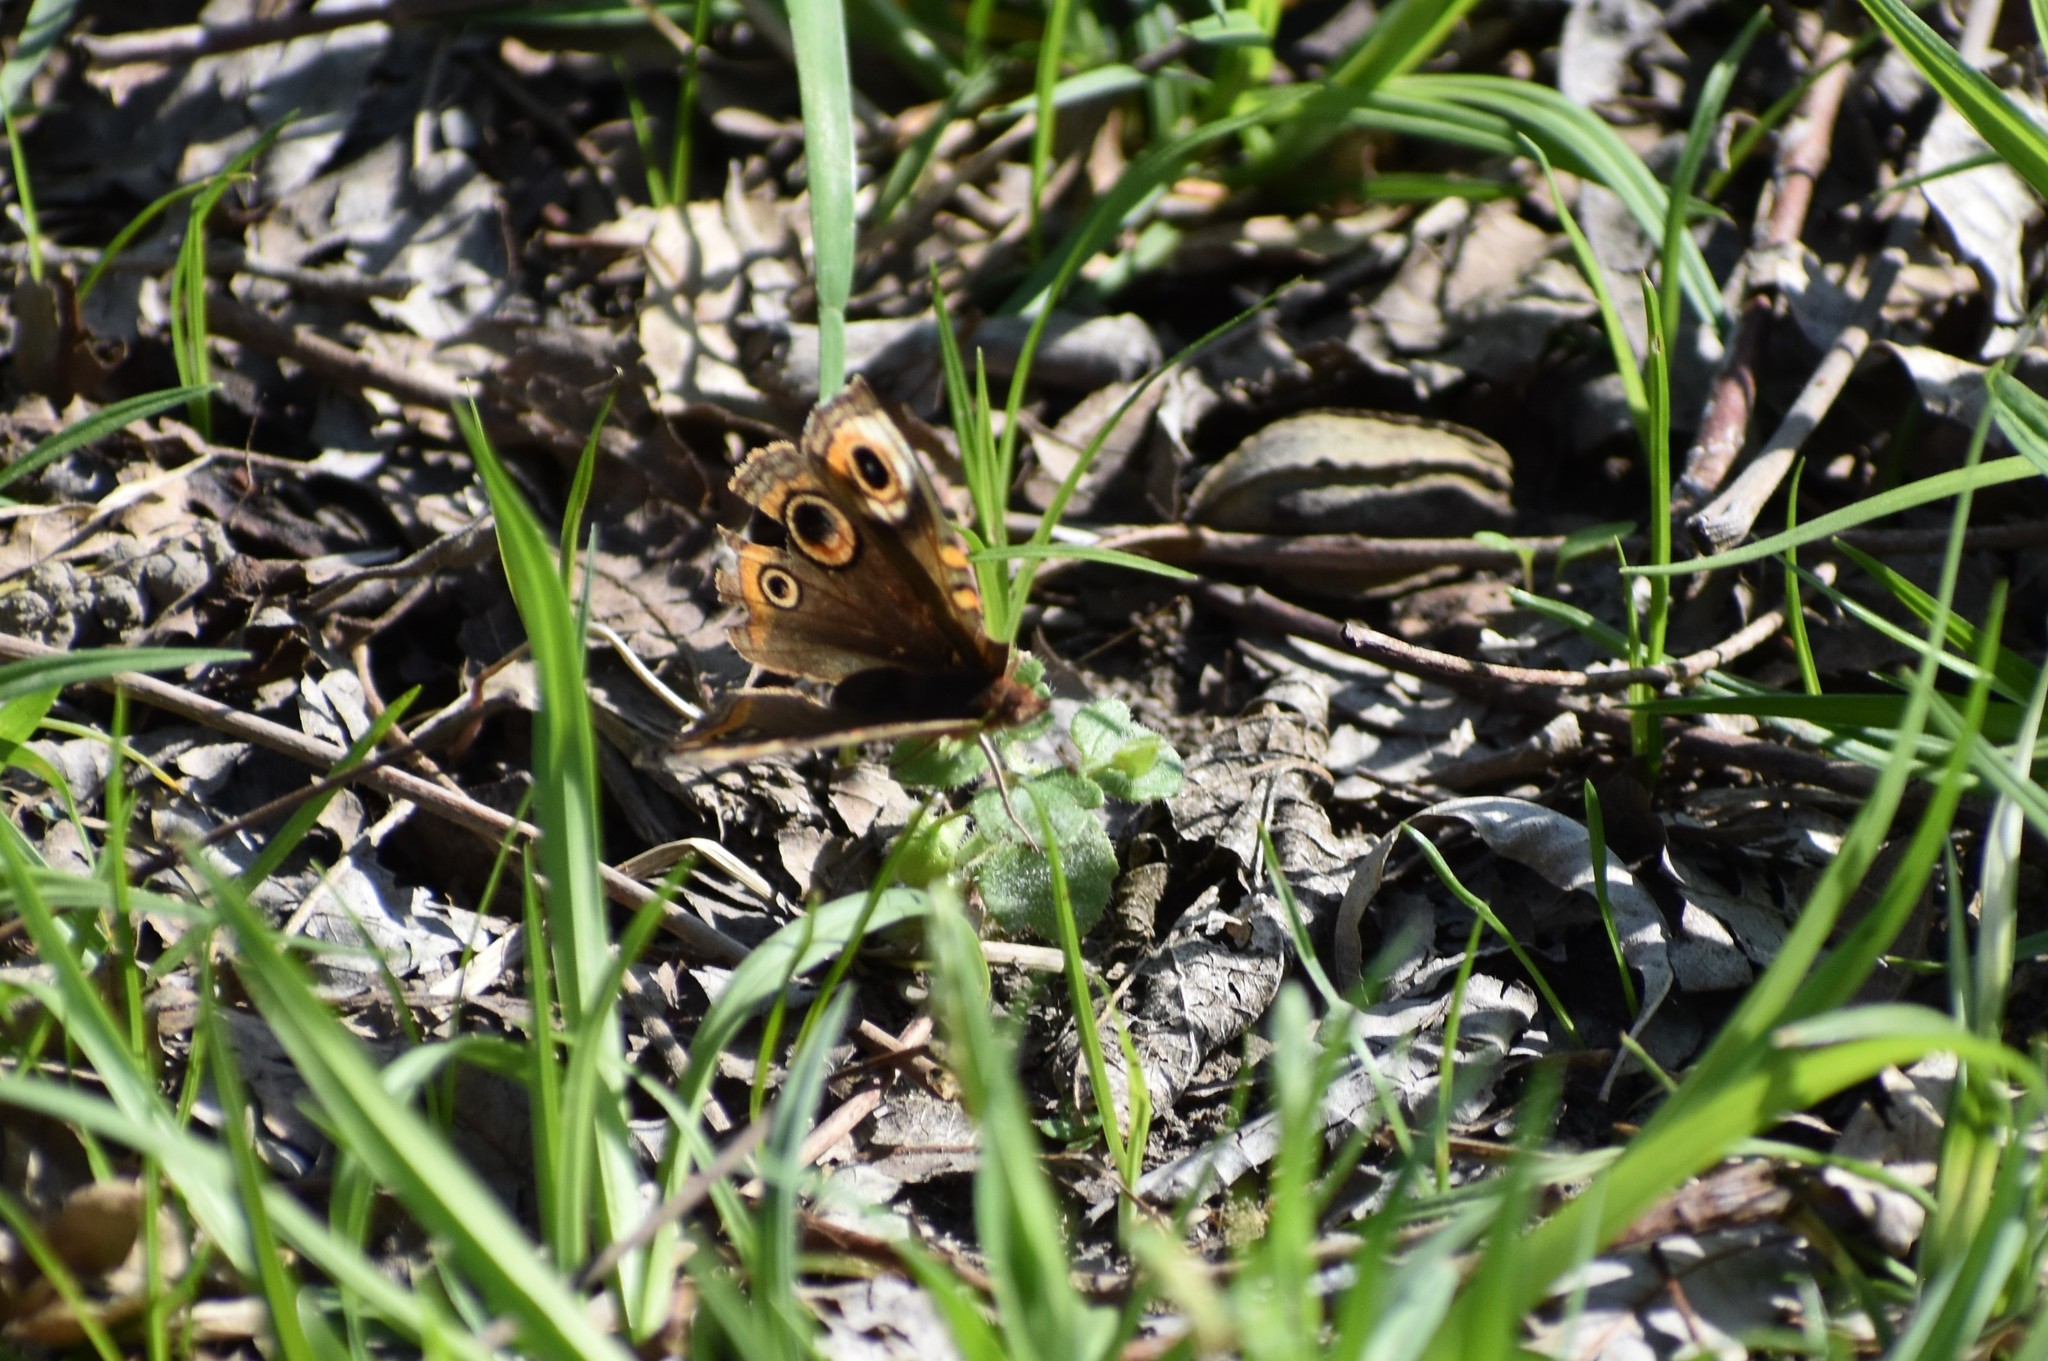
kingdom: Animalia
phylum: Arthropoda
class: Insecta
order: Lepidoptera
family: Nymphalidae
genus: Junonia
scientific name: Junonia coenia
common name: Common buckeye
